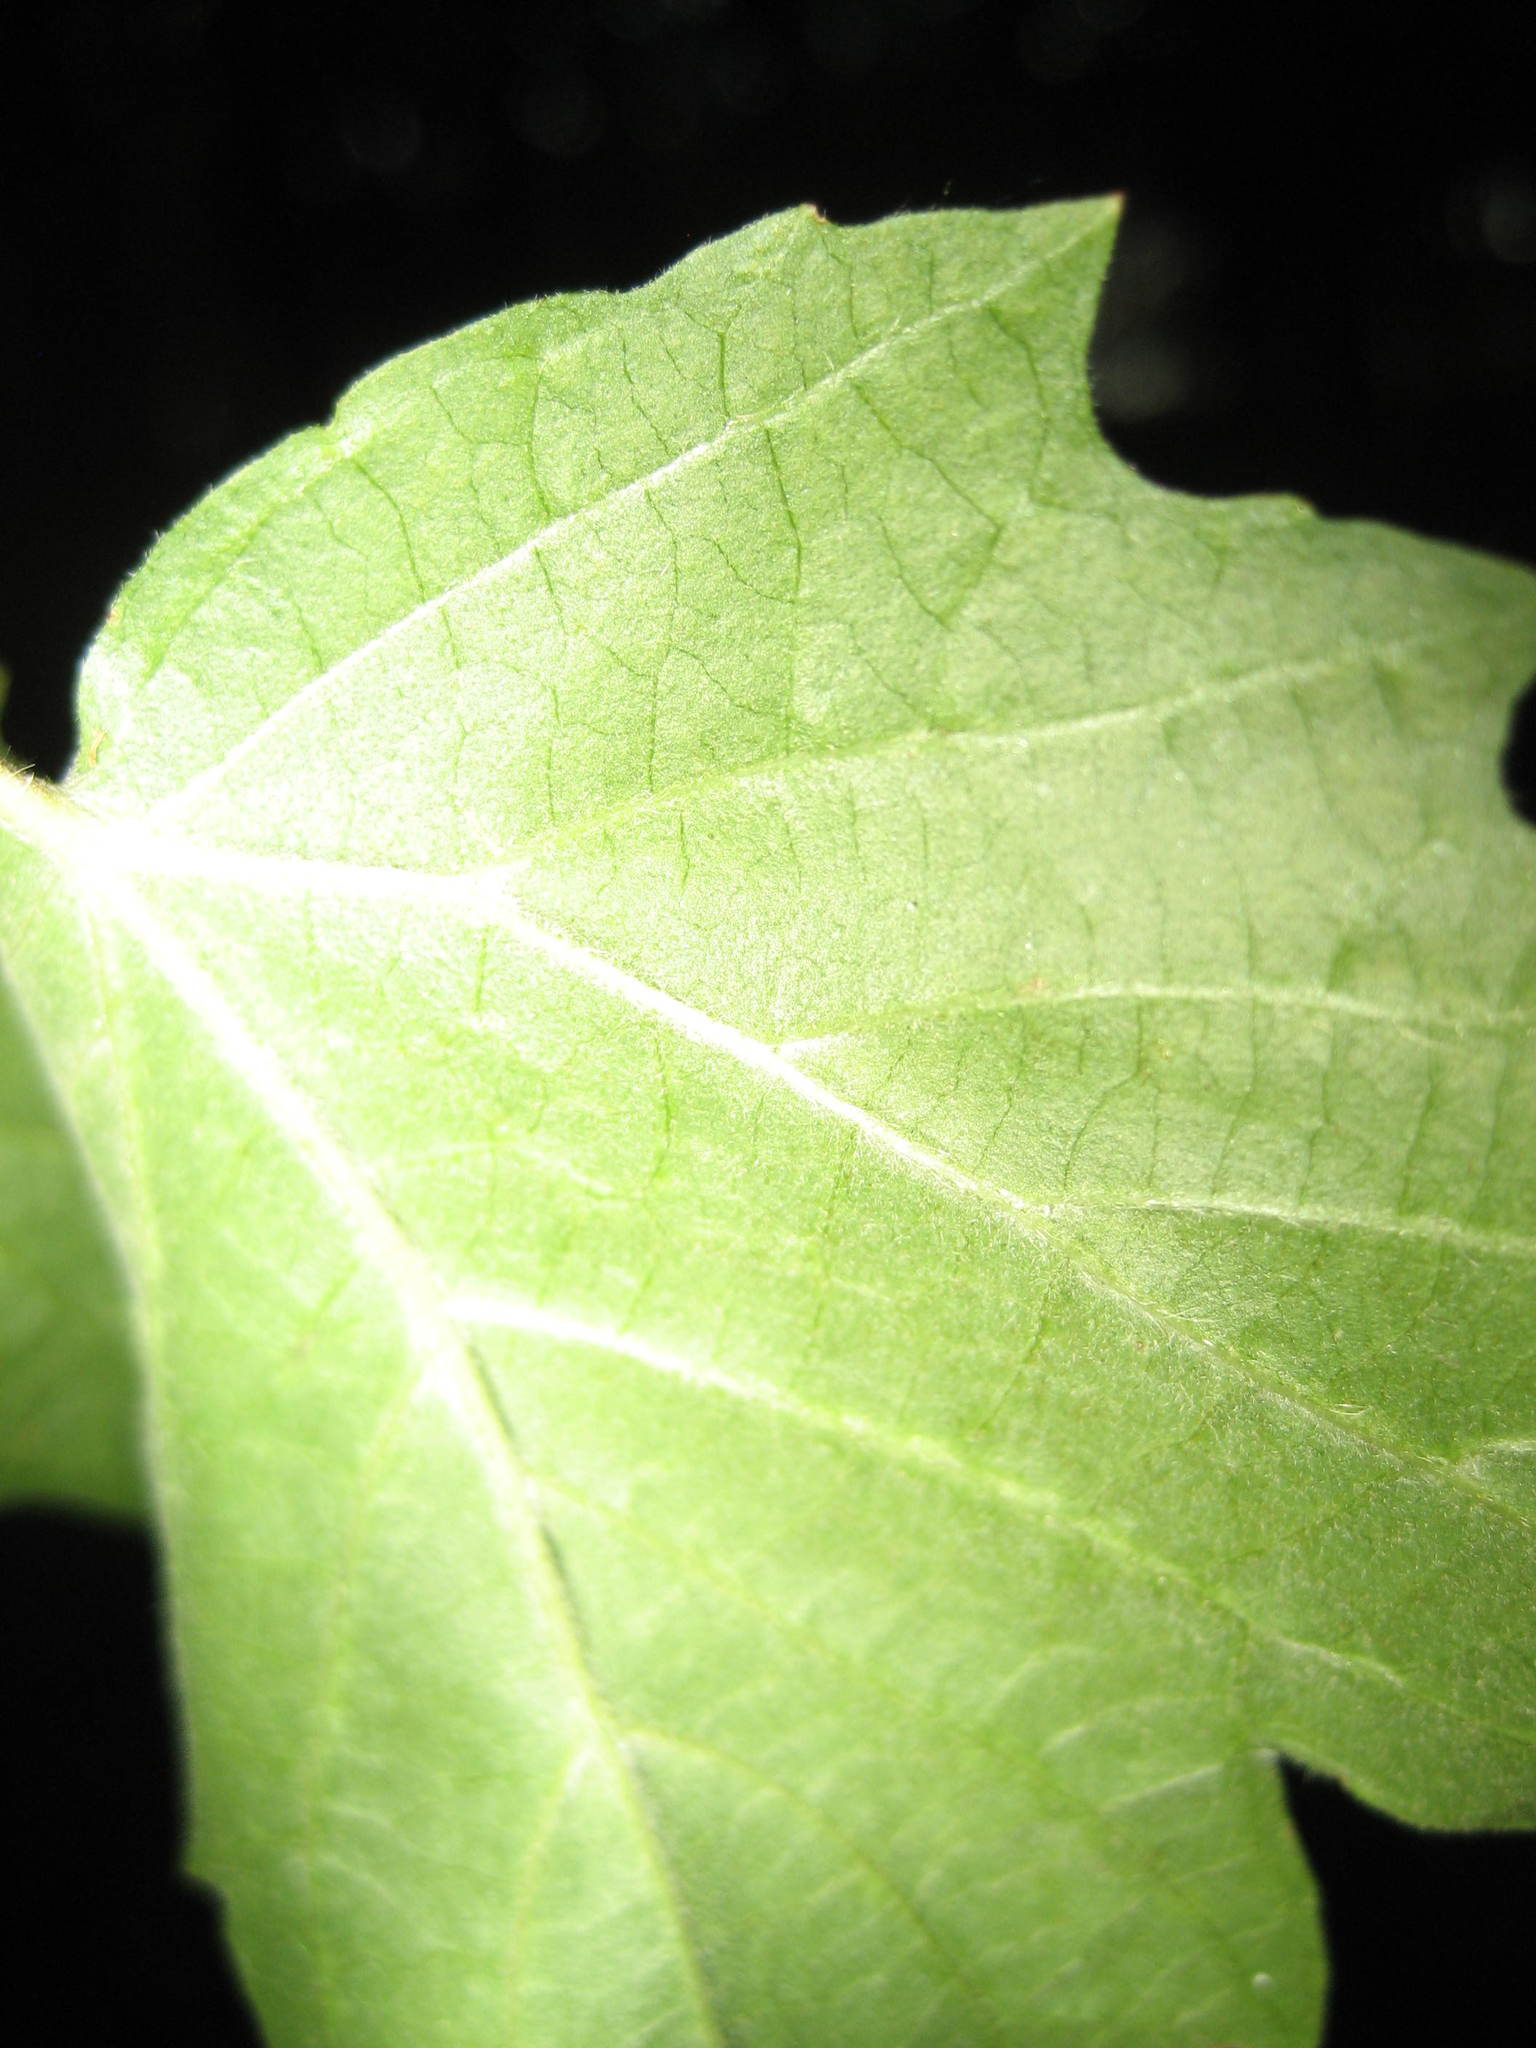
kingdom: Plantae
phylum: Tracheophyta
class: Magnoliopsida
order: Dipsacales
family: Viburnaceae
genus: Viburnum
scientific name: Viburnum acerifolium
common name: Dockmackie
